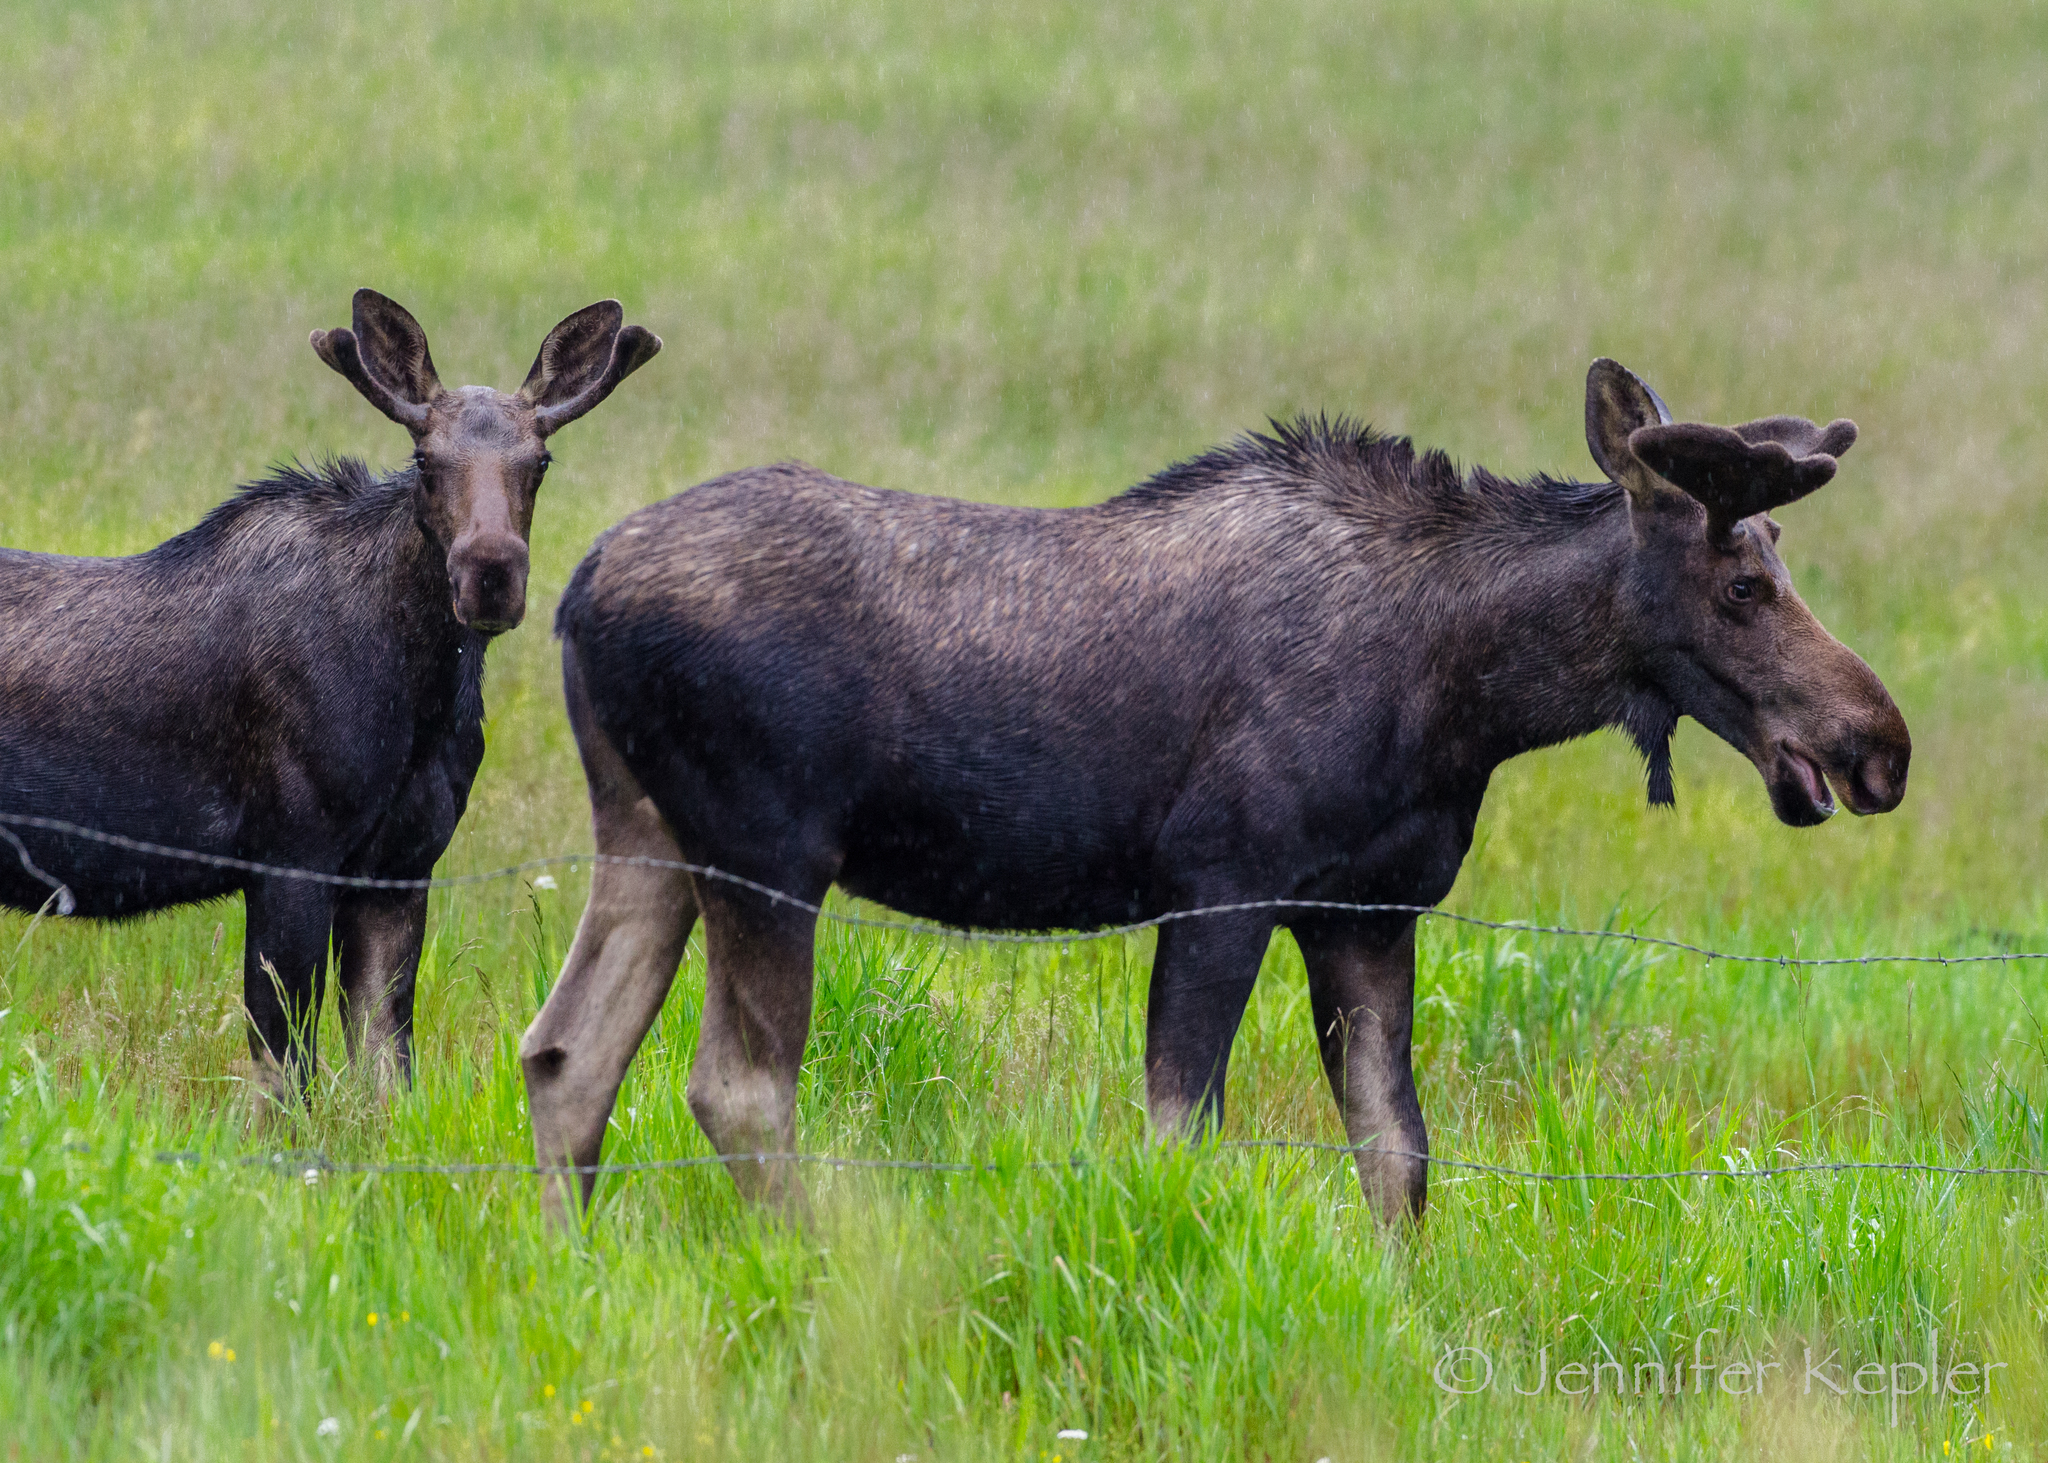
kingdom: Animalia
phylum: Chordata
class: Mammalia
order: Artiodactyla
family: Cervidae
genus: Alces
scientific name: Alces alces
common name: Moose
